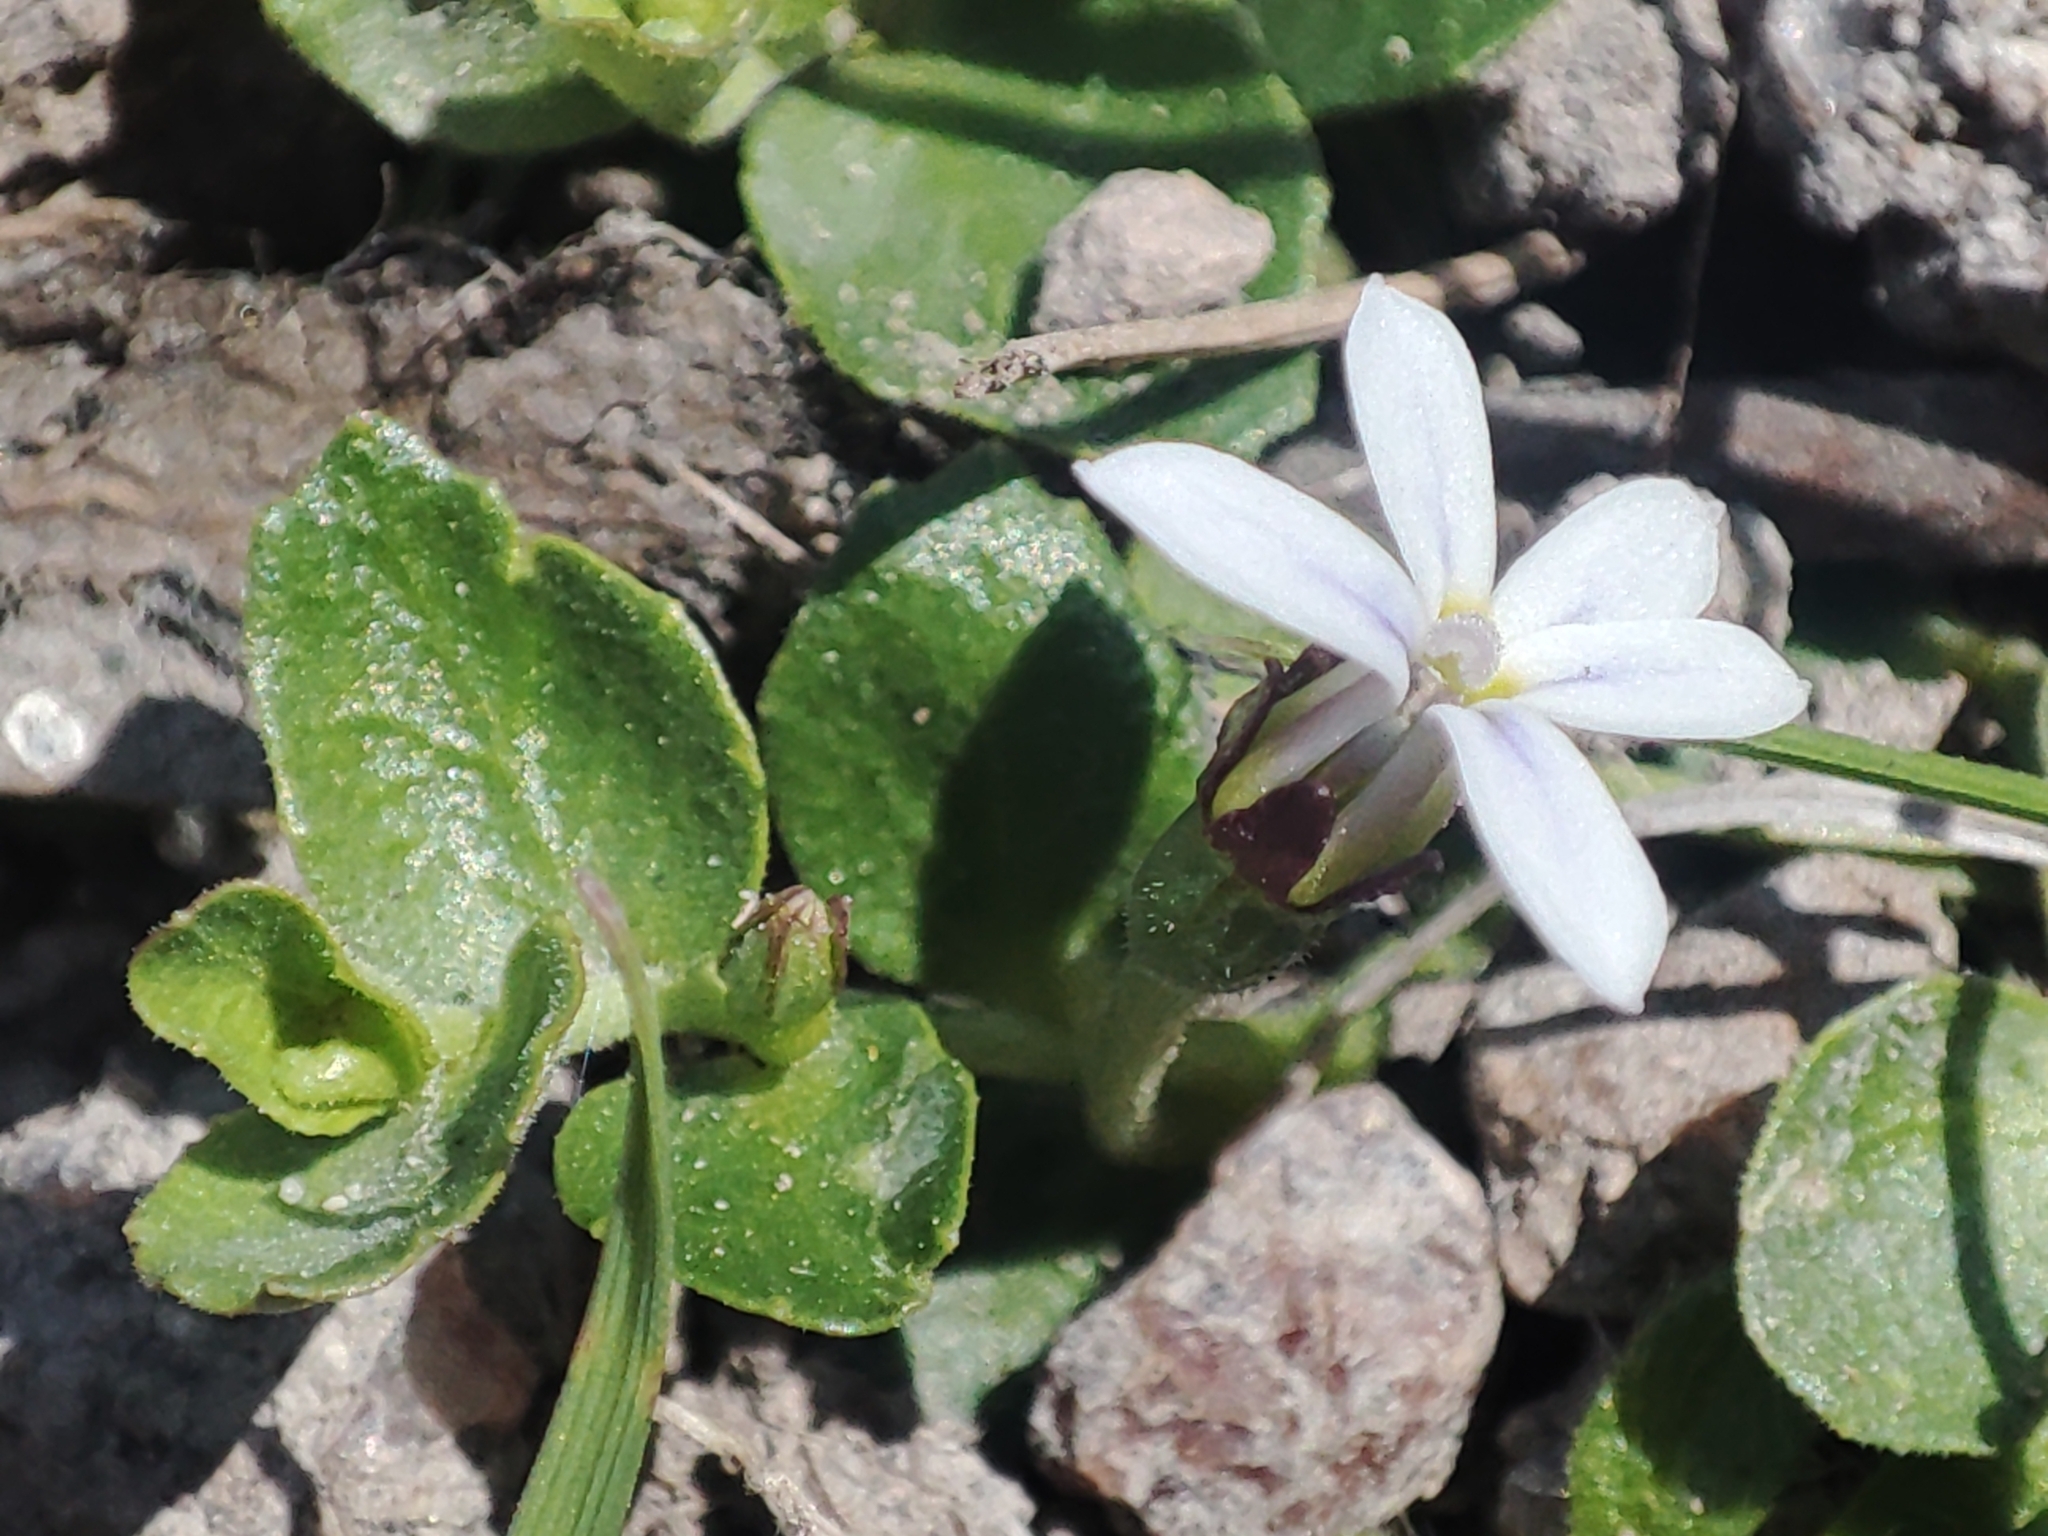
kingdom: Plantae
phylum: Tracheophyta
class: Magnoliopsida
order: Asterales
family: Campanulaceae
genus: Lobelia
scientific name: Lobelia pedunculata
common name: Matted pratia
